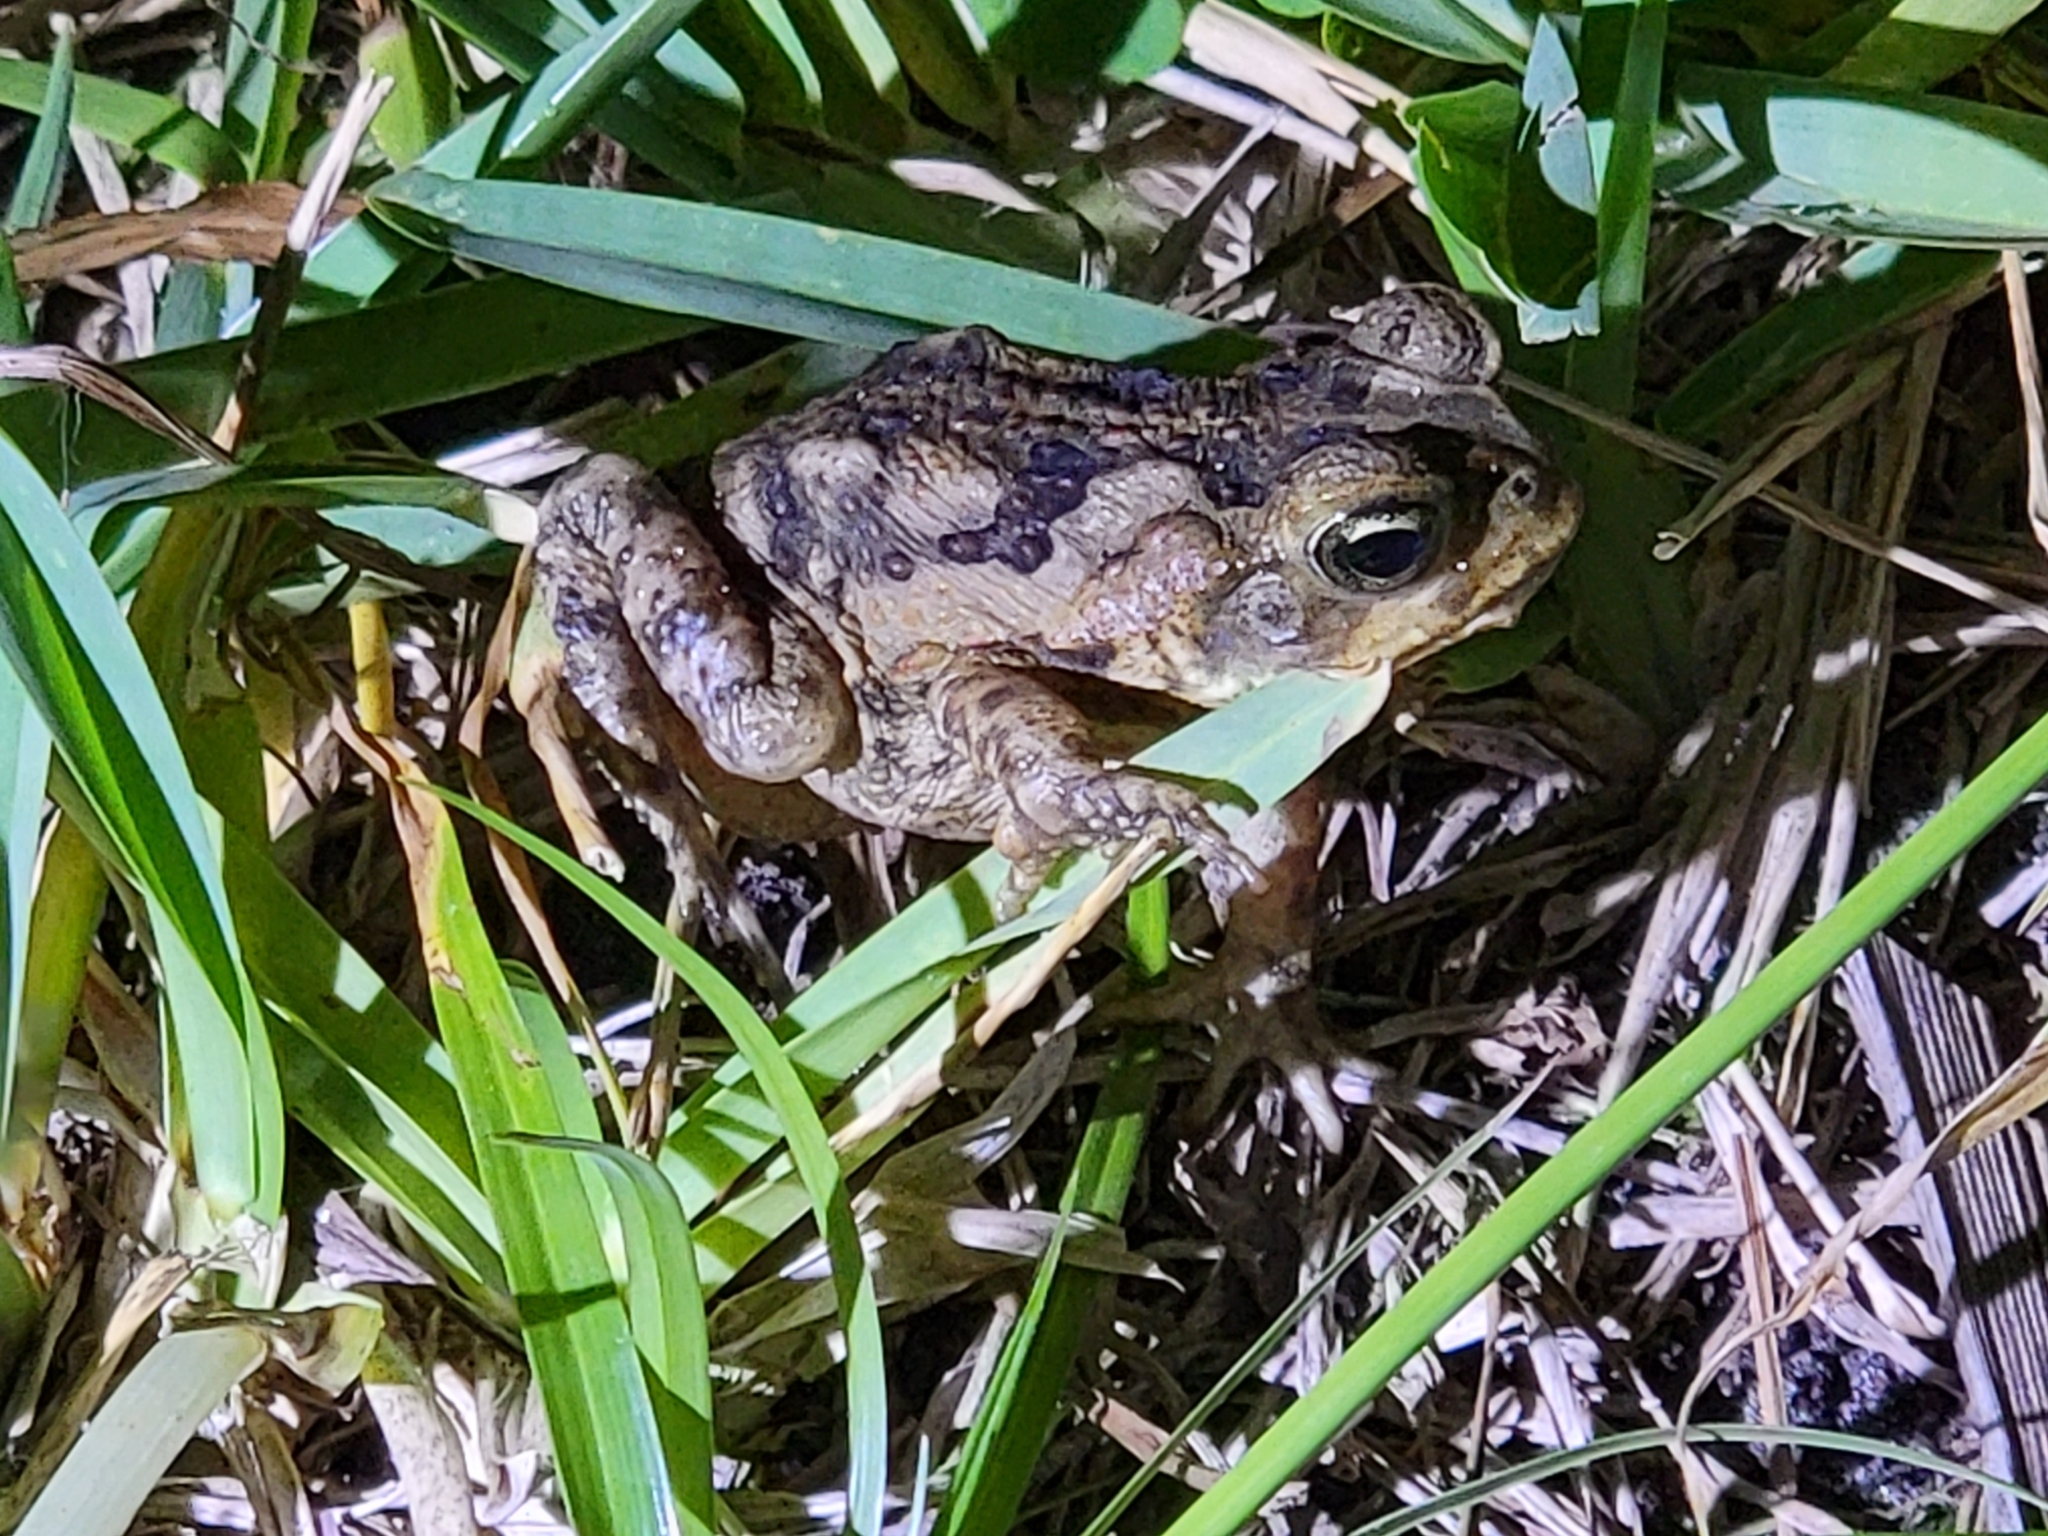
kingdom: Animalia
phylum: Chordata
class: Amphibia
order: Anura
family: Bufonidae
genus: Rhinella
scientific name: Rhinella marina
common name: Cane toad
